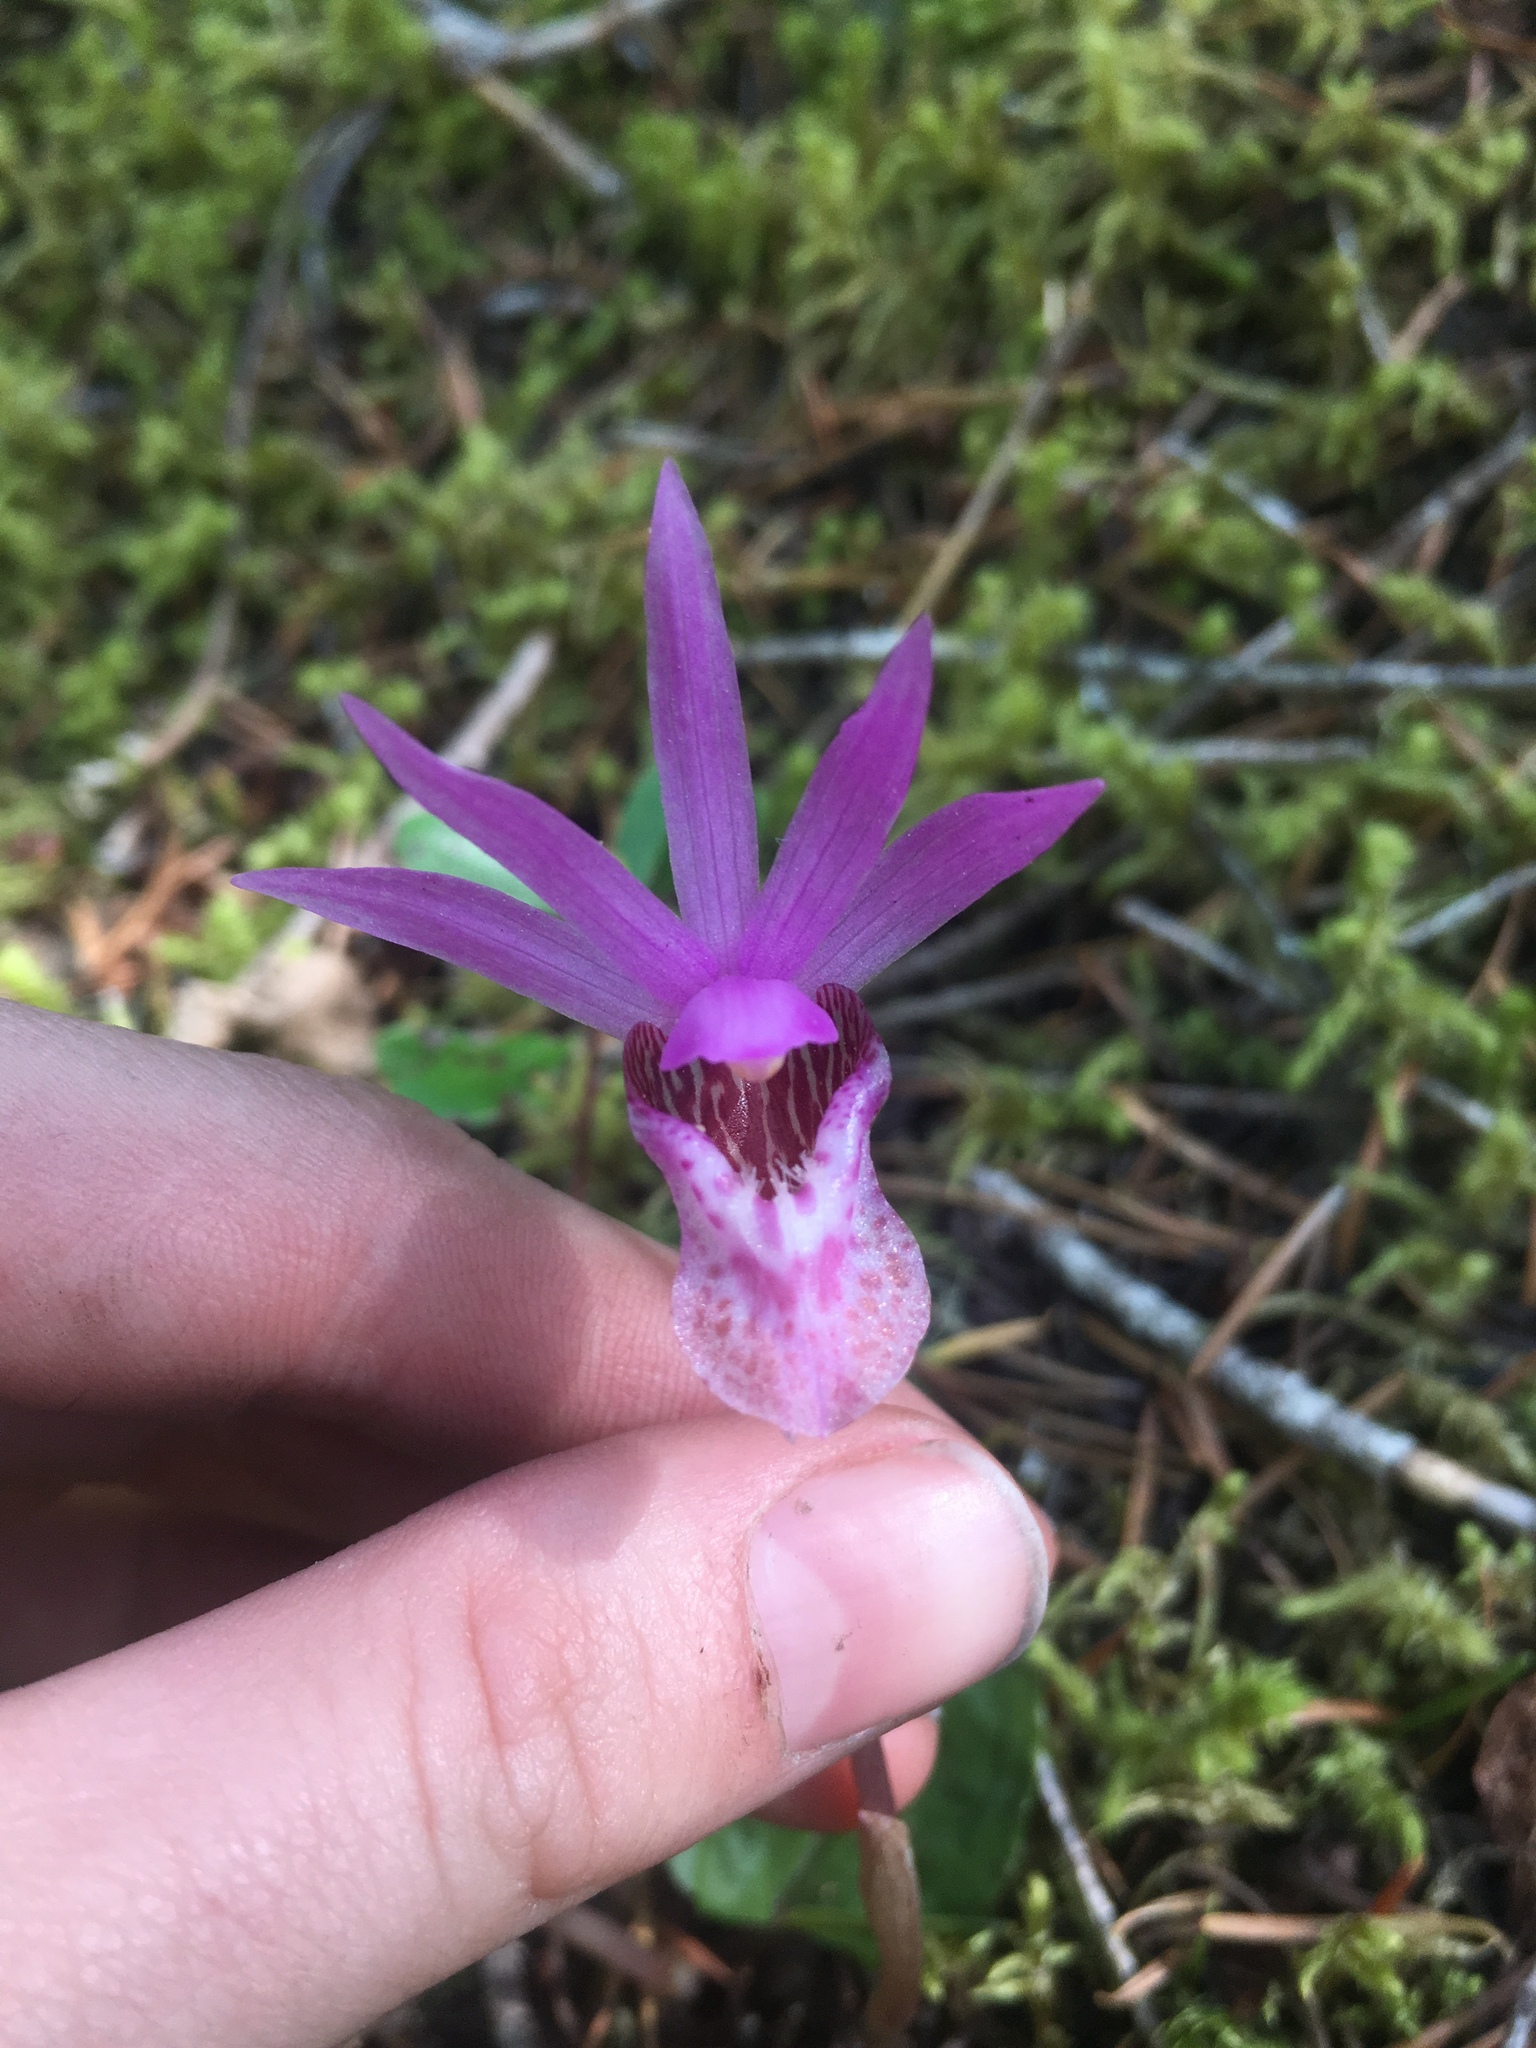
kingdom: Plantae
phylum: Tracheophyta
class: Liliopsida
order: Asparagales
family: Orchidaceae
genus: Calypso
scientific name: Calypso bulbosa
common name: Calypso
